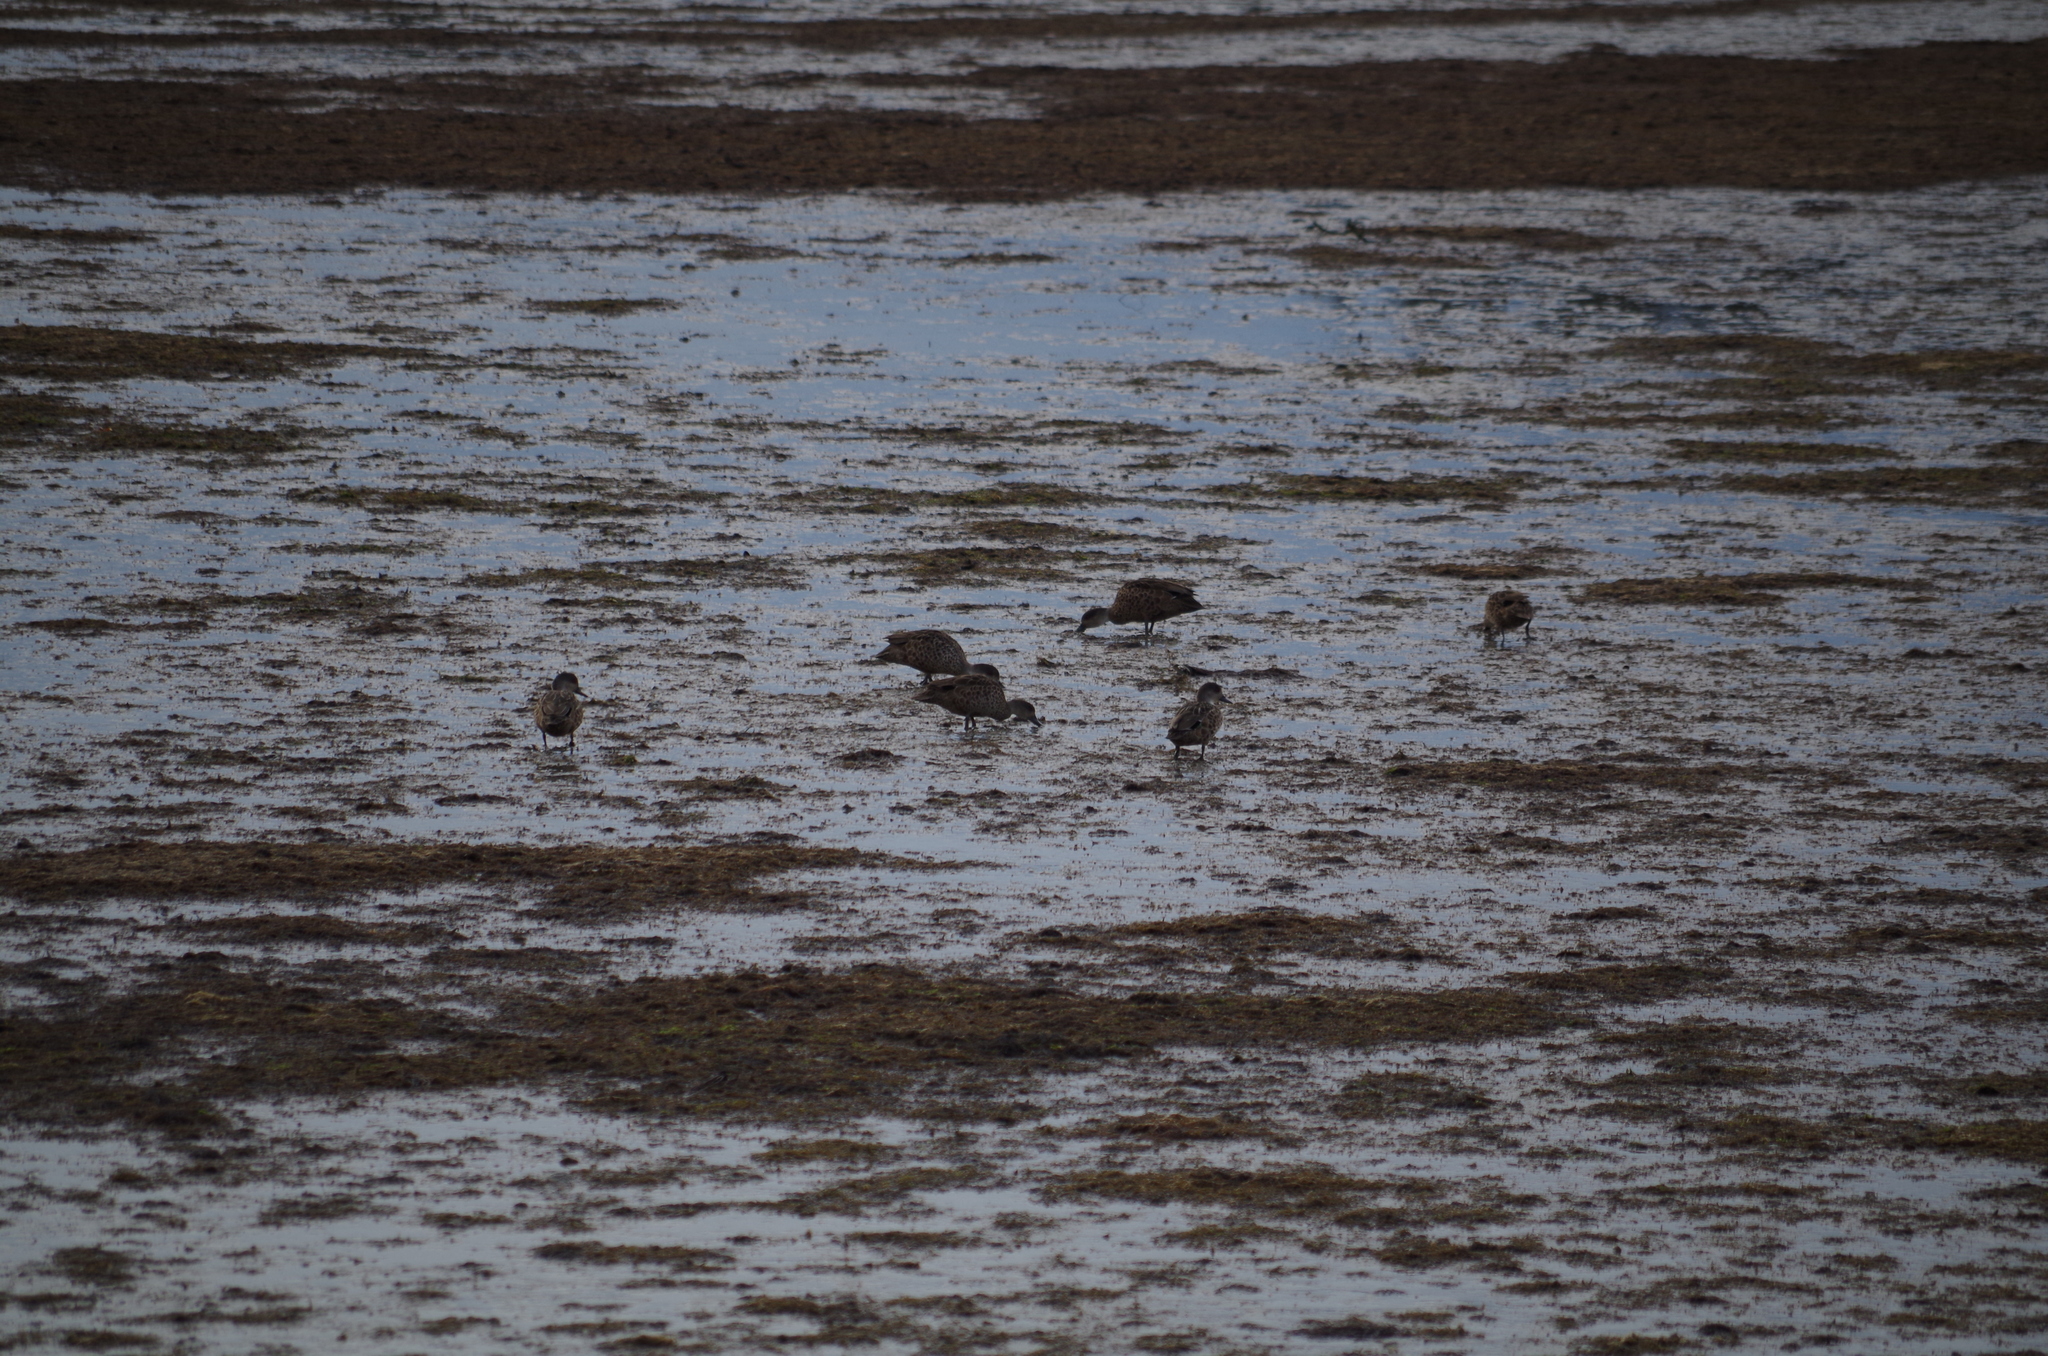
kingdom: Animalia
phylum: Chordata
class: Aves
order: Anseriformes
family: Anatidae
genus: Anas
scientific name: Anas gracilis
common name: Grey teal
